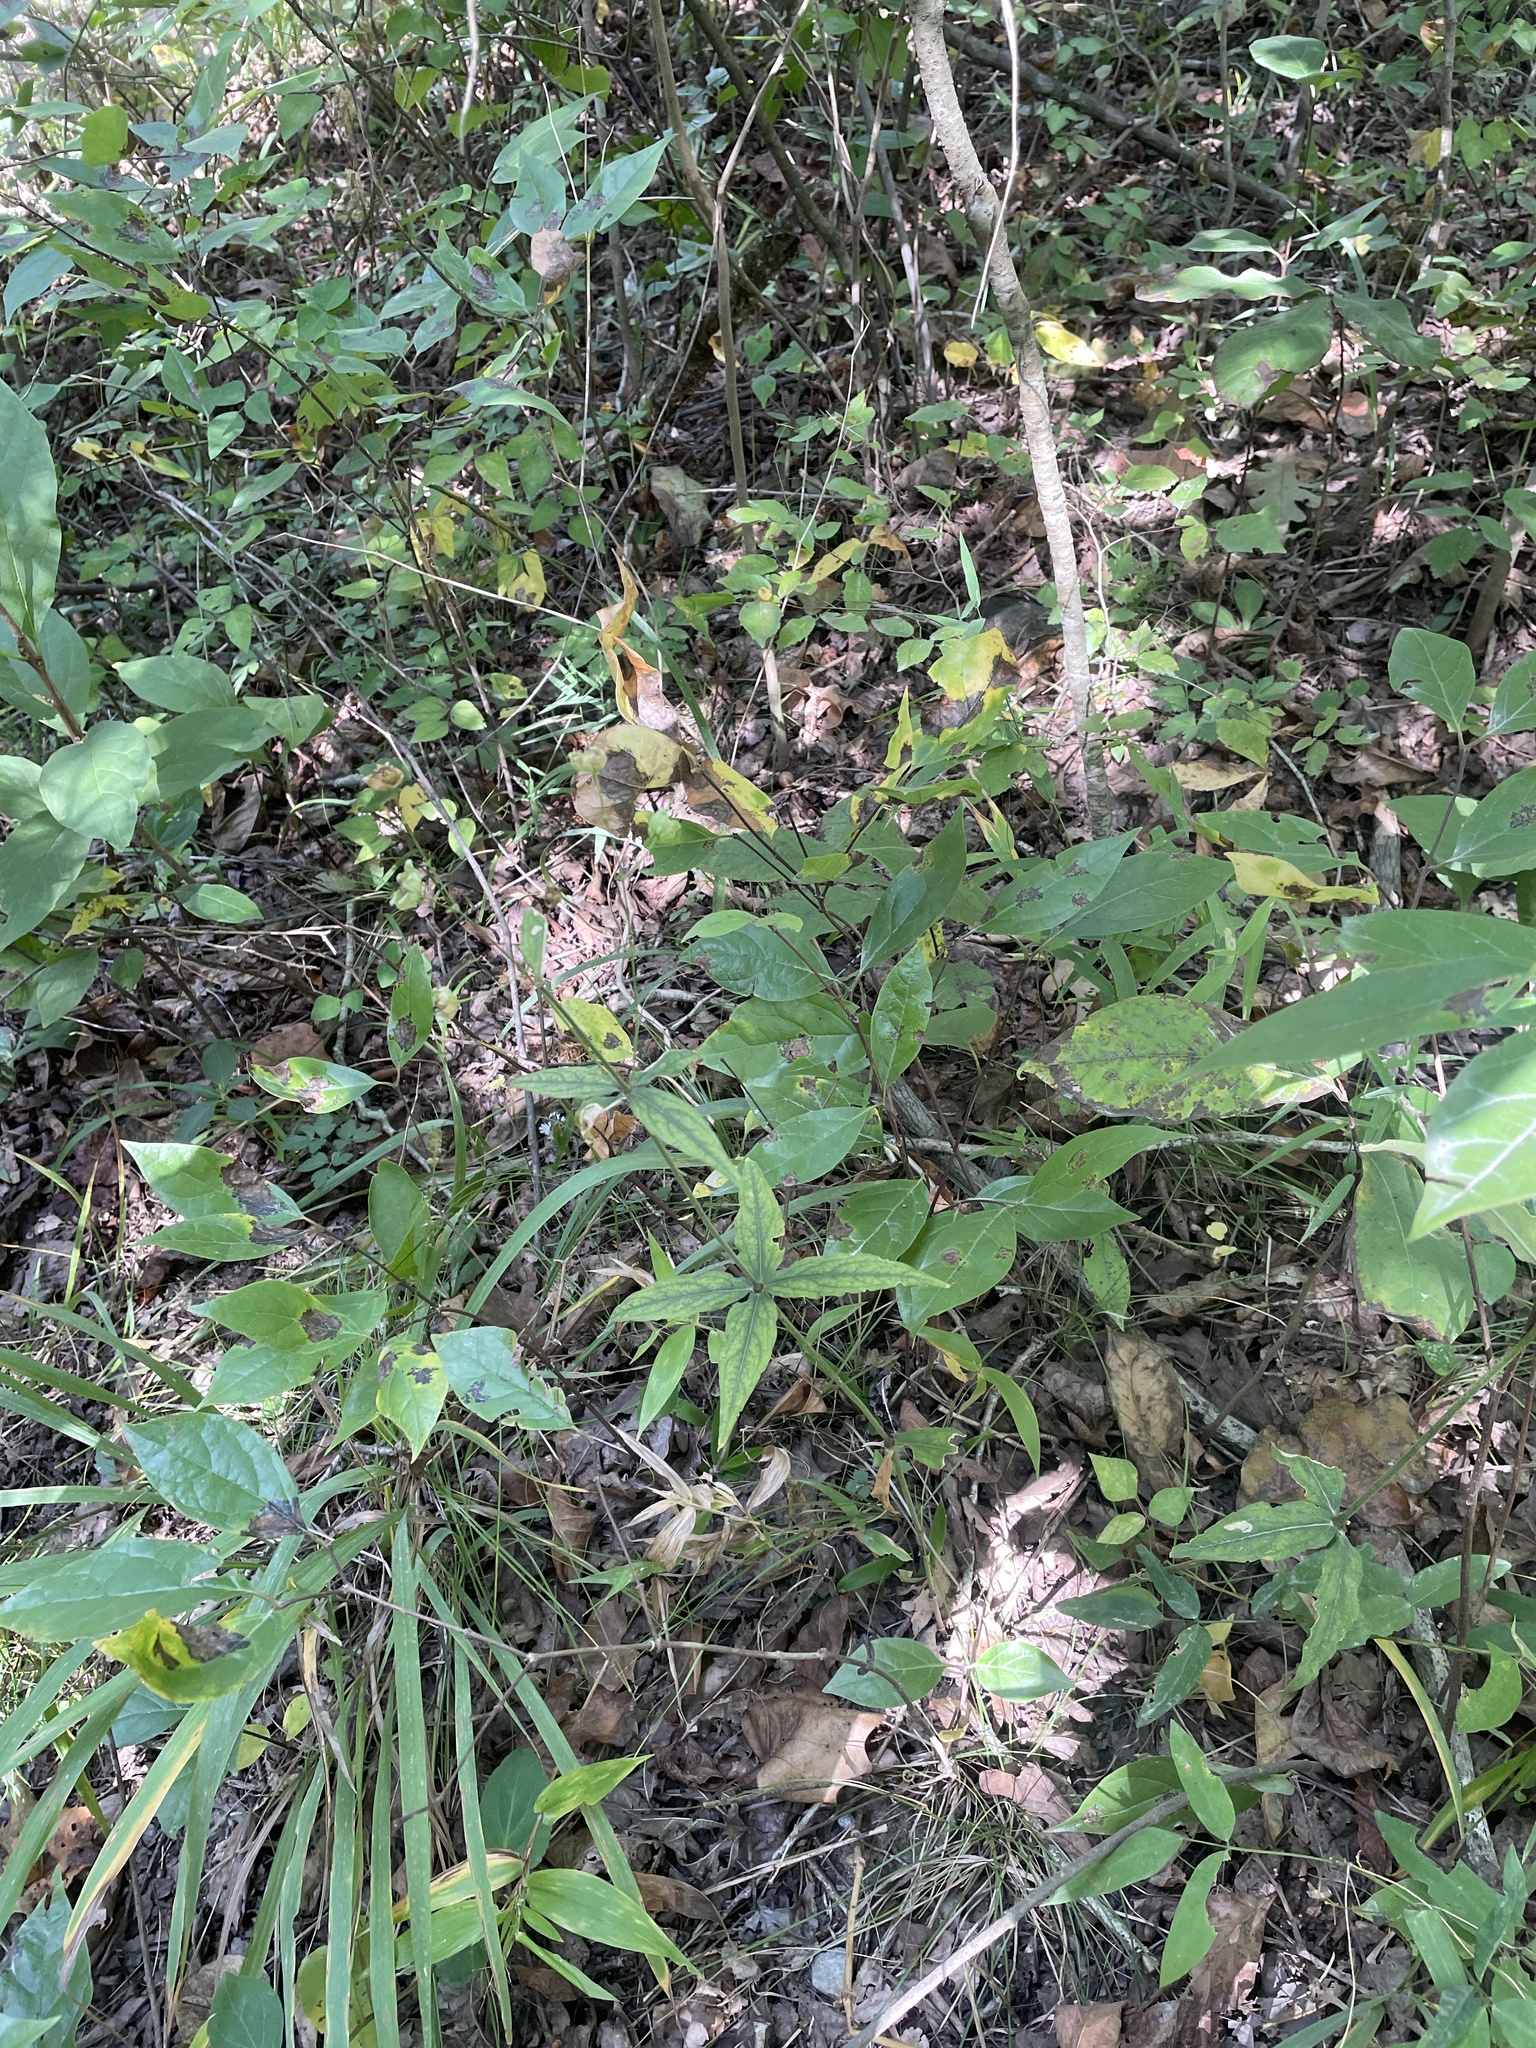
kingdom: Plantae
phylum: Tracheophyta
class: Magnoliopsida
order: Caryophyllales
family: Caryophyllaceae
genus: Silene
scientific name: Silene stellata
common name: Starry campion
